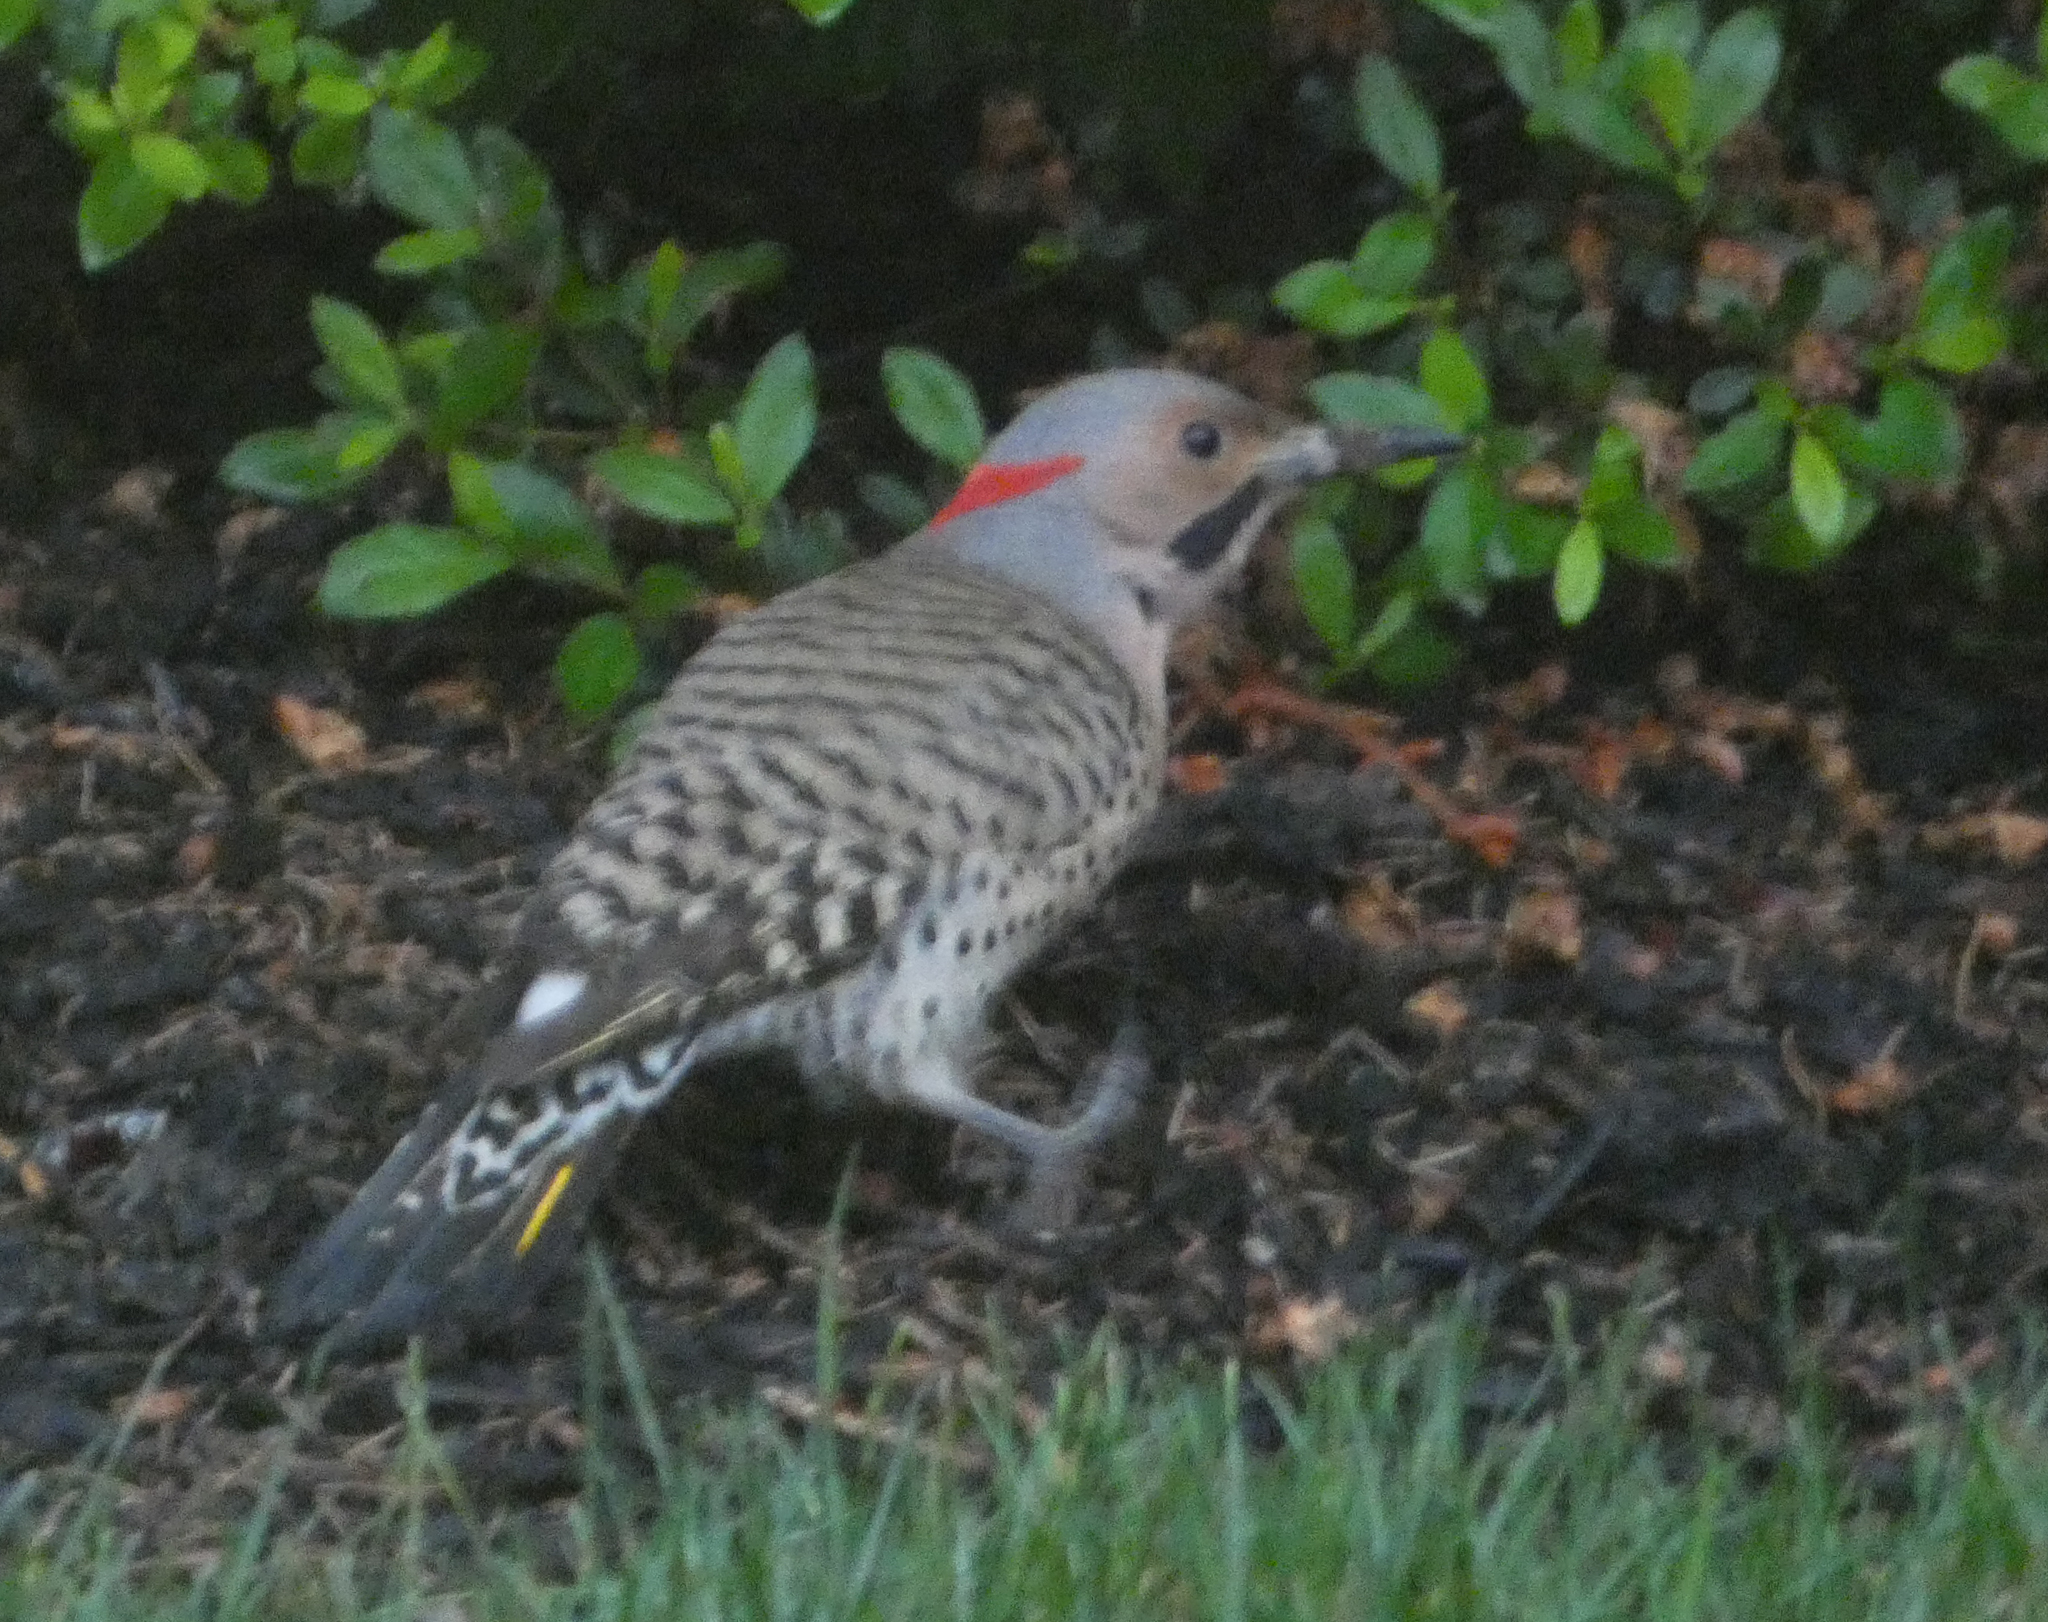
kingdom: Animalia
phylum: Chordata
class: Aves
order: Piciformes
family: Picidae
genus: Colaptes
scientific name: Colaptes auratus
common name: Northern flicker
